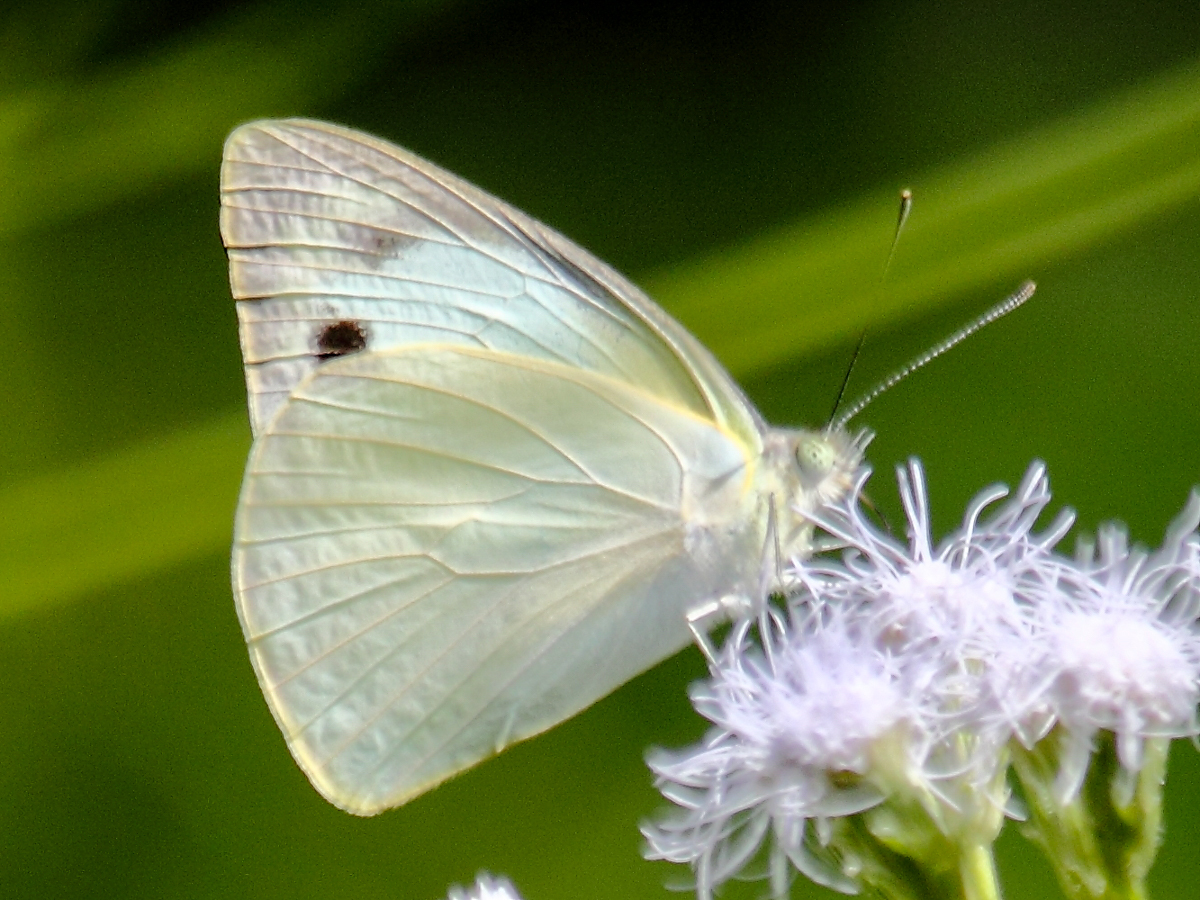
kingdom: Animalia
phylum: Arthropoda
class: Insecta
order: Lepidoptera
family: Pieridae
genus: Appias
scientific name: Appias albina
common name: Common albatross
